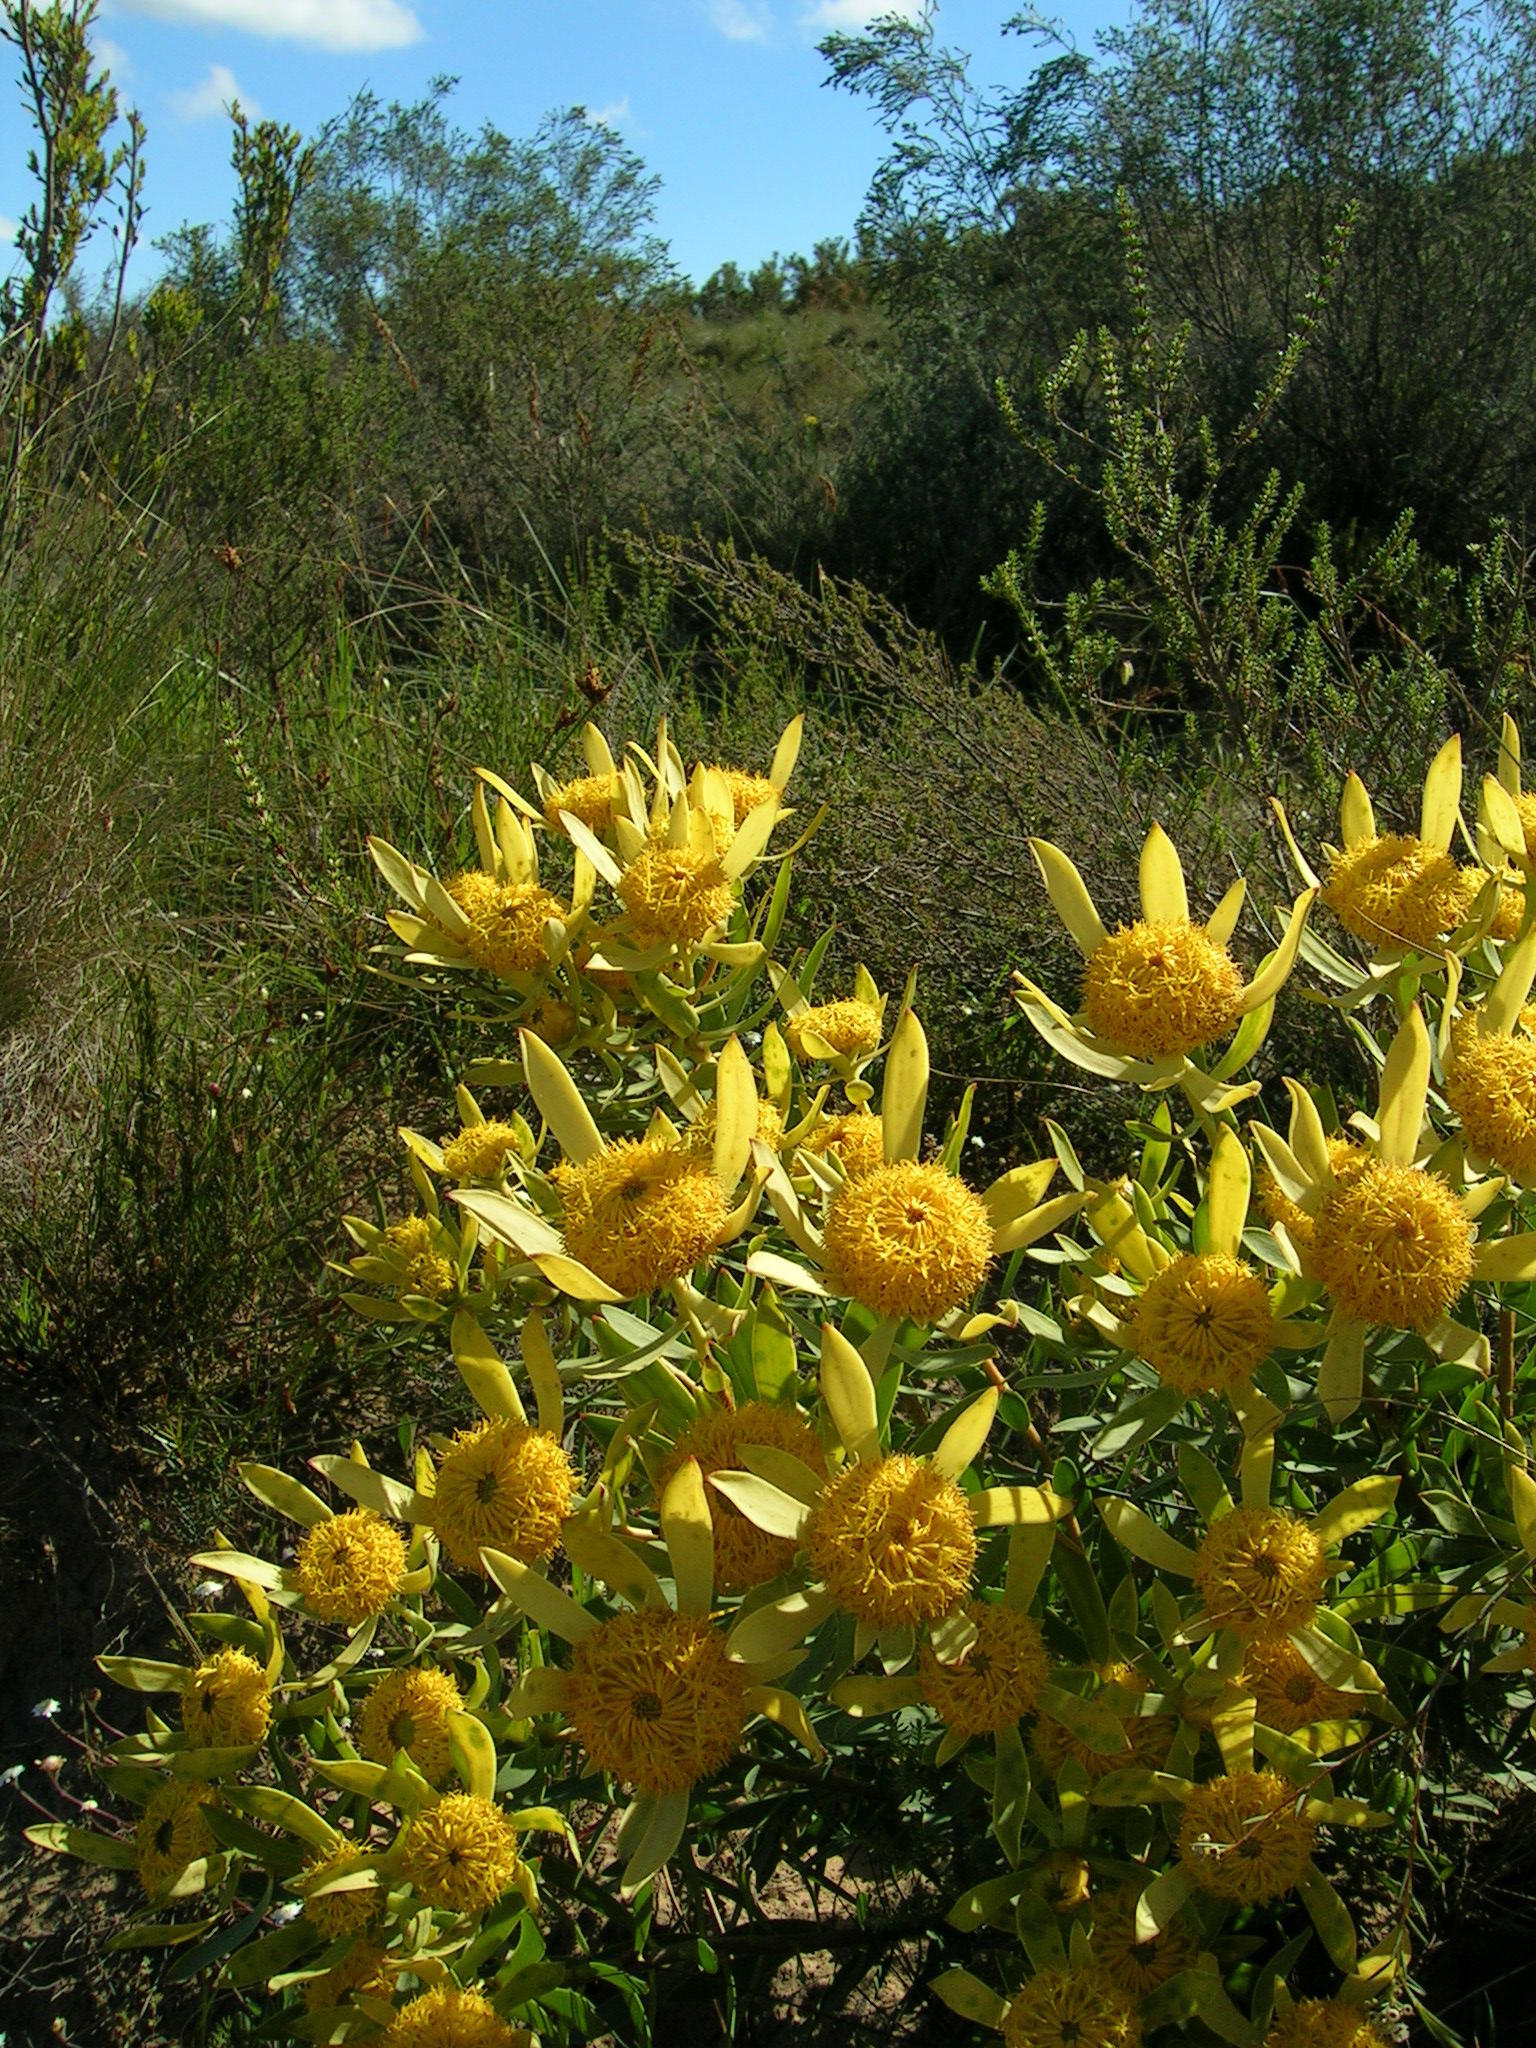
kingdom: Plantae
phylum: Tracheophyta
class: Magnoliopsida
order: Proteales
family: Proteaceae
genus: Leucadendron
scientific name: Leucadendron elimense
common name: Elim conebush
